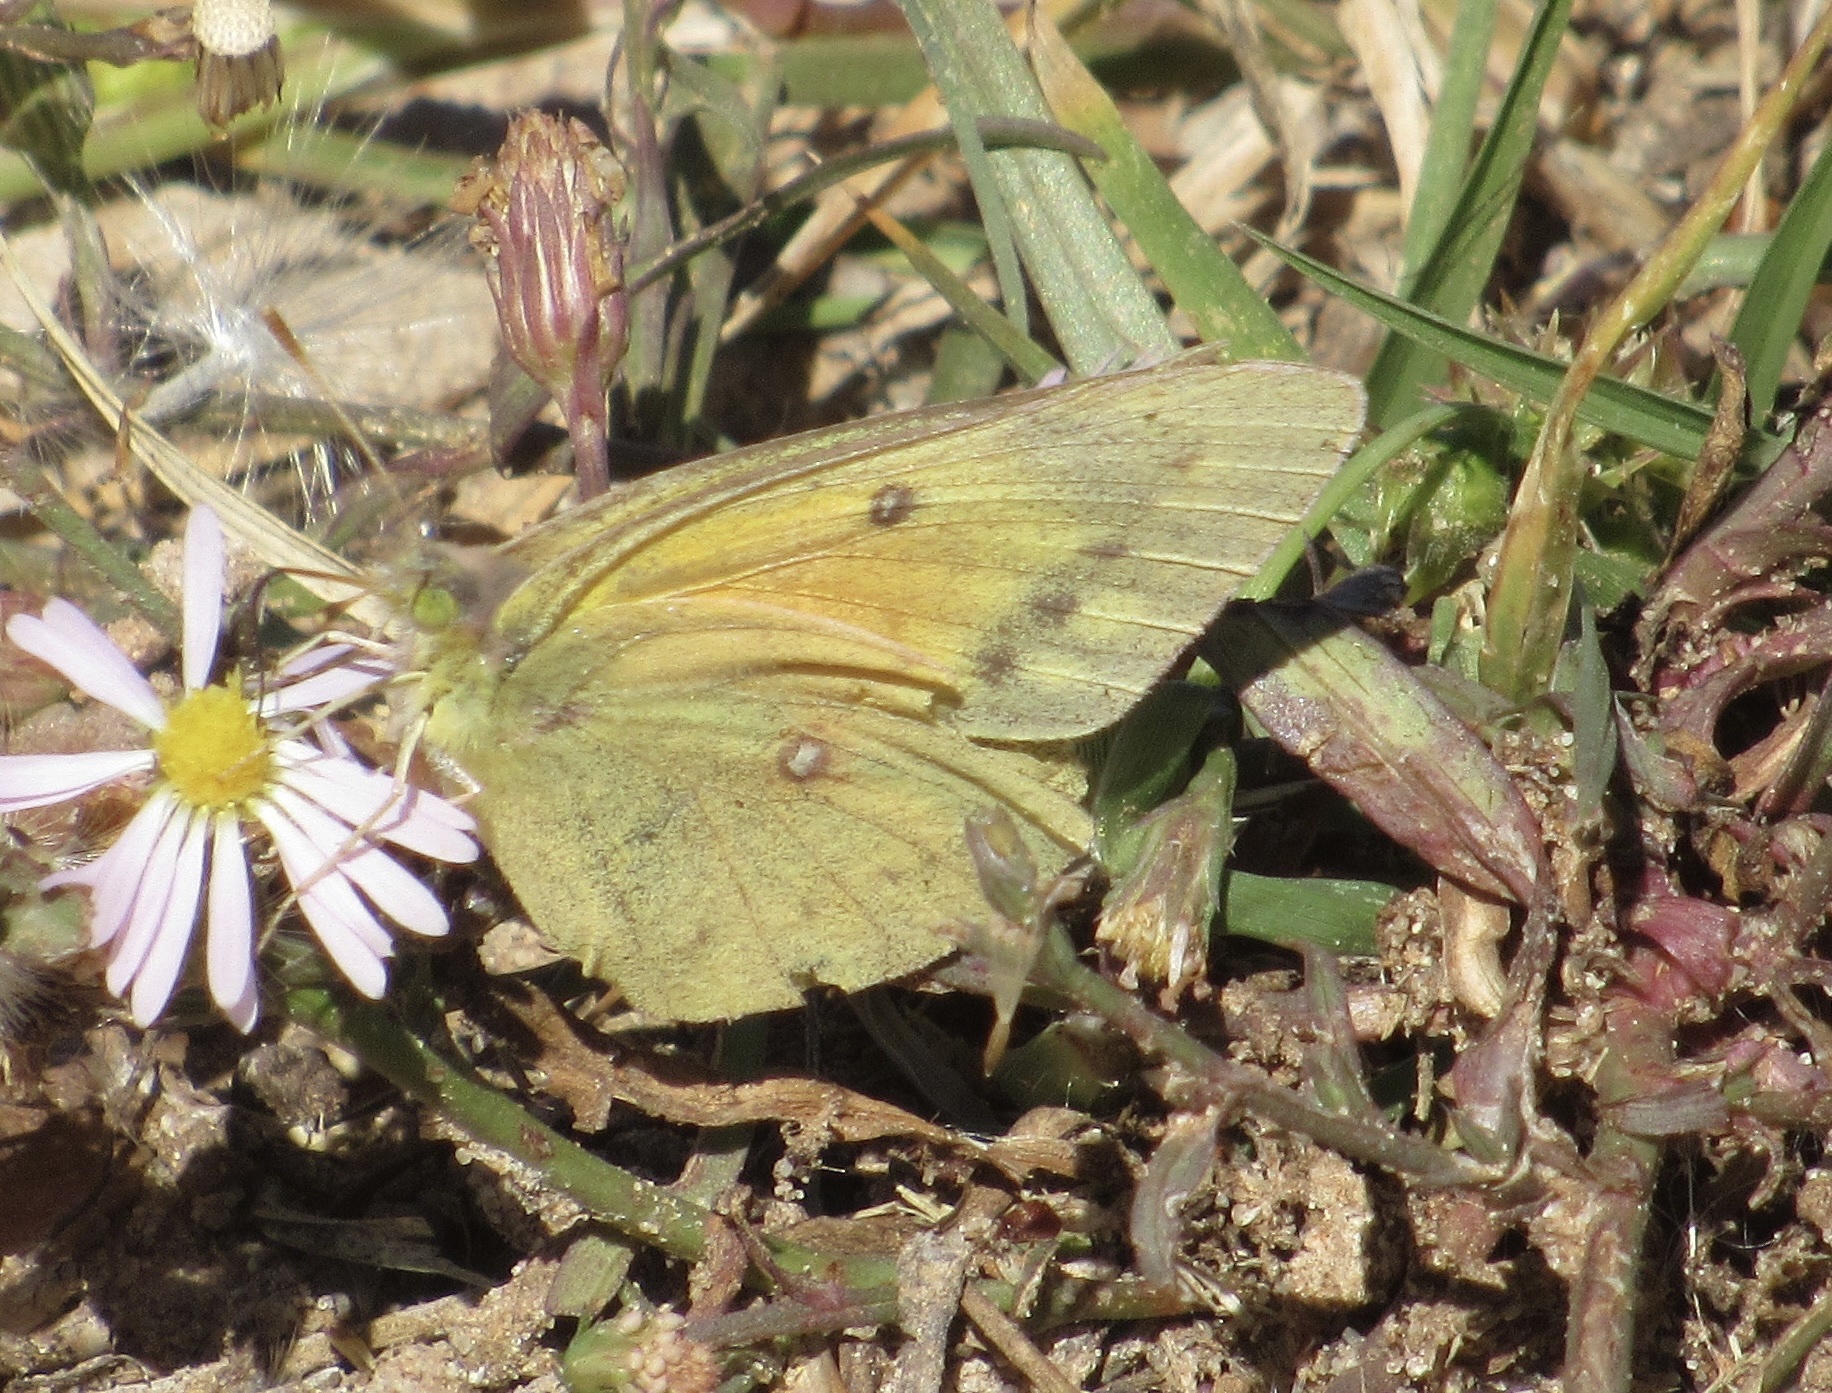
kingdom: Animalia
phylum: Arthropoda
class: Insecta
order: Lepidoptera
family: Pieridae
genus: Colias
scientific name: Colias eurytheme
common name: Alfalfa butterfly
